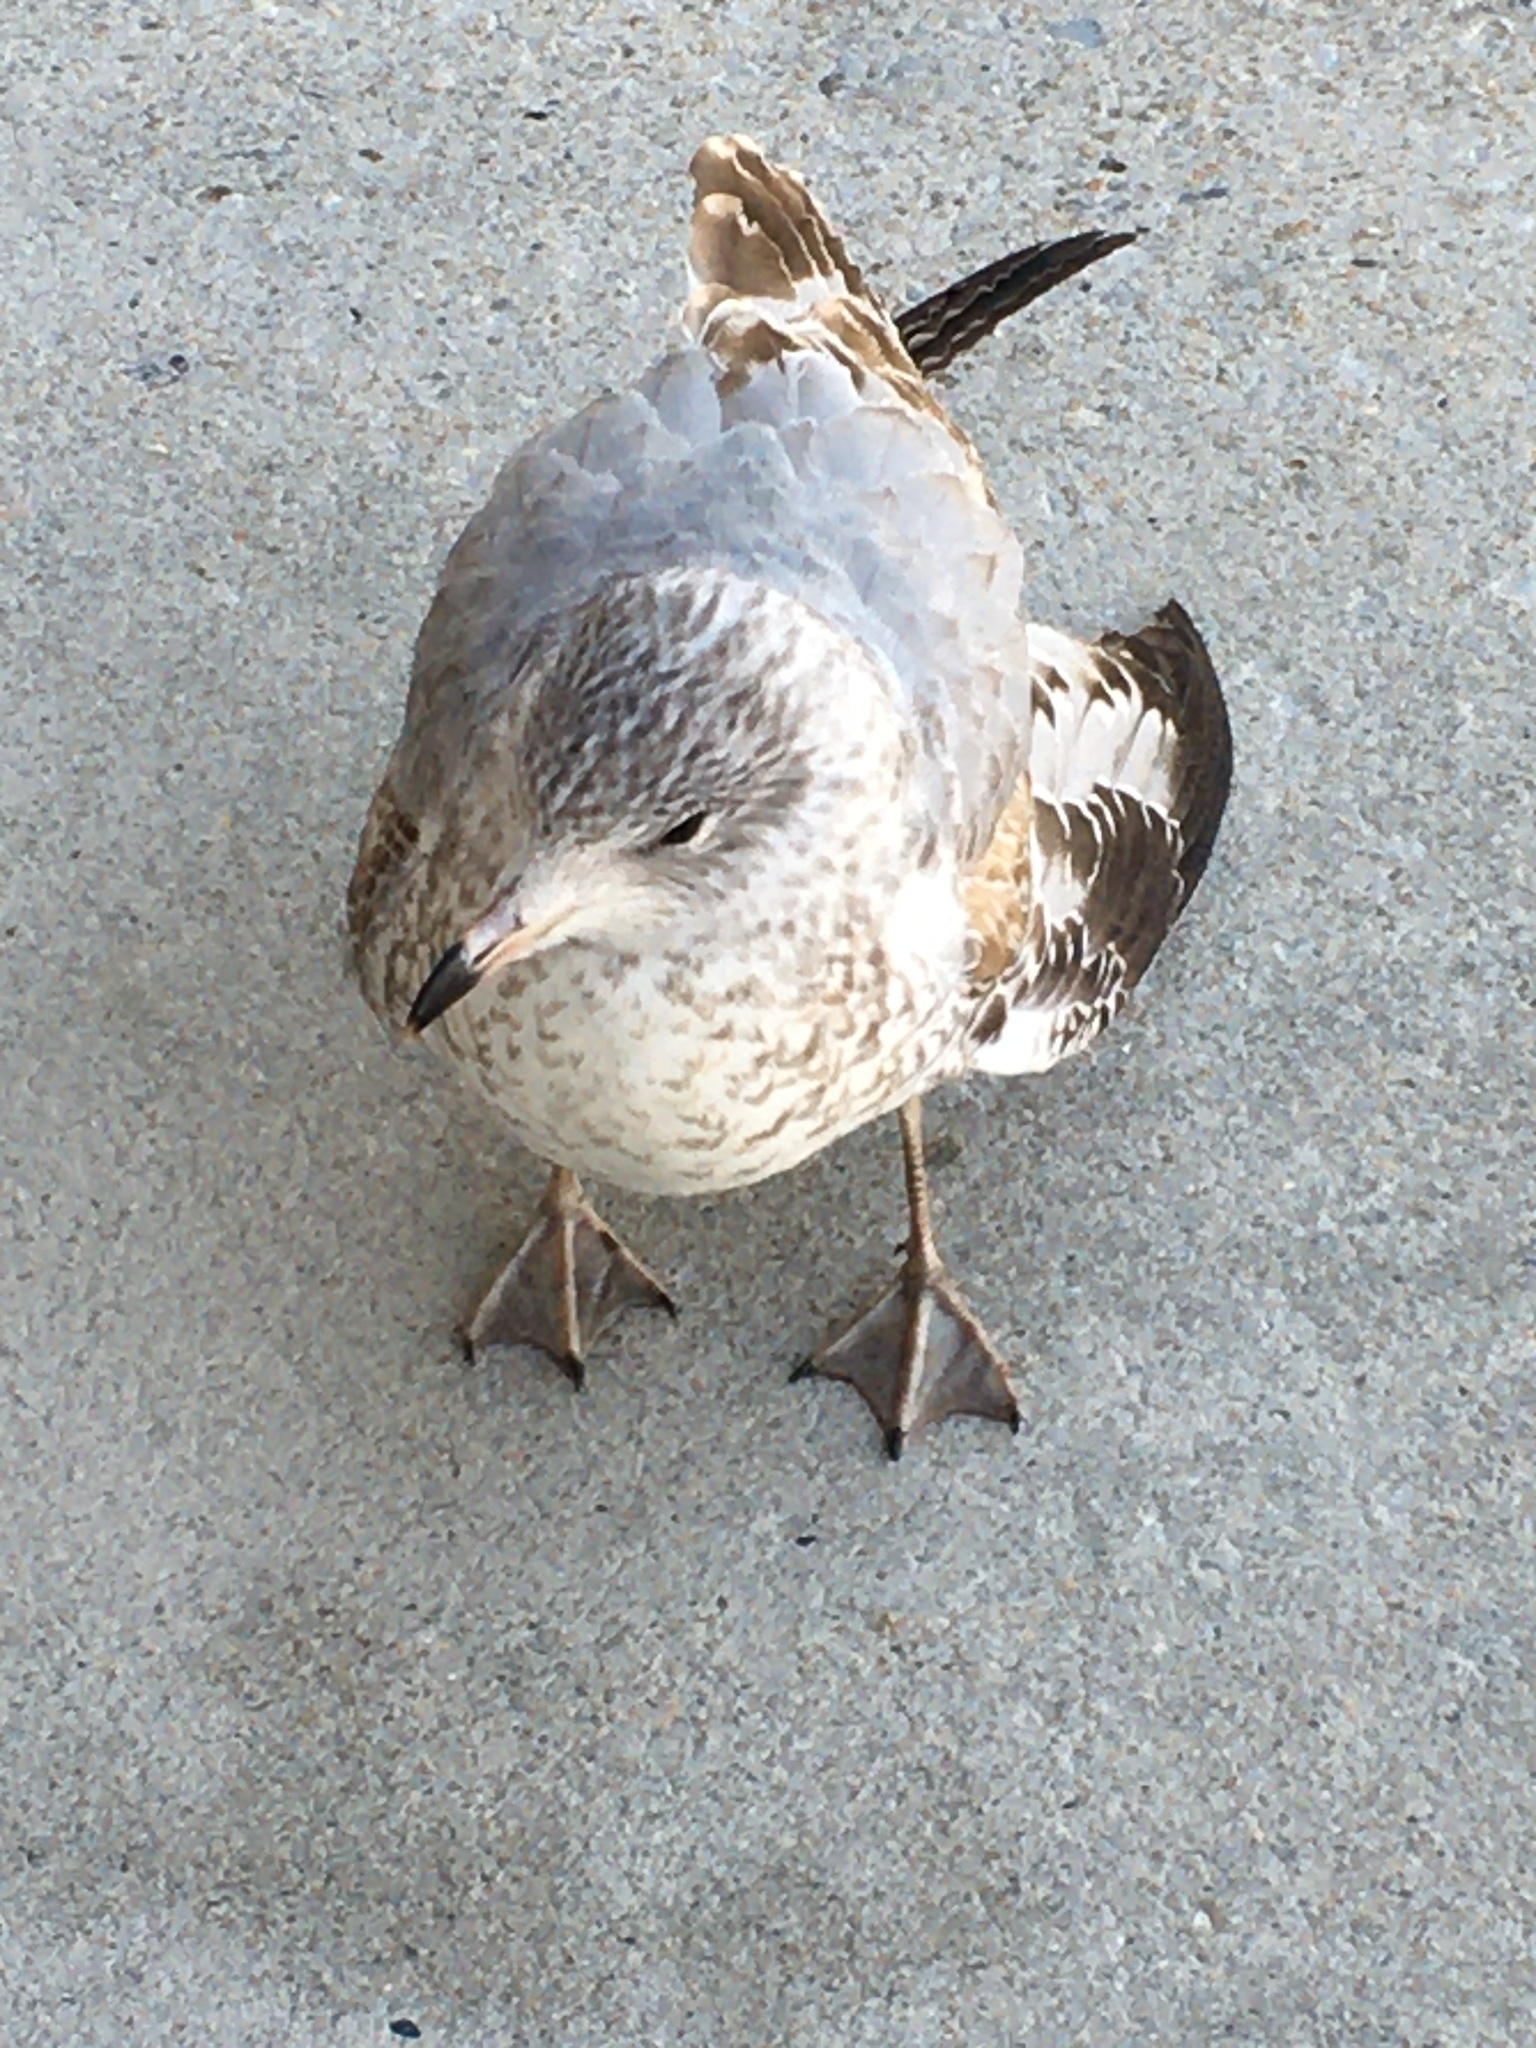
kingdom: Animalia
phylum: Chordata
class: Aves
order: Charadriiformes
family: Laridae
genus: Larus
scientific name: Larus delawarensis
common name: Ring-billed gull
